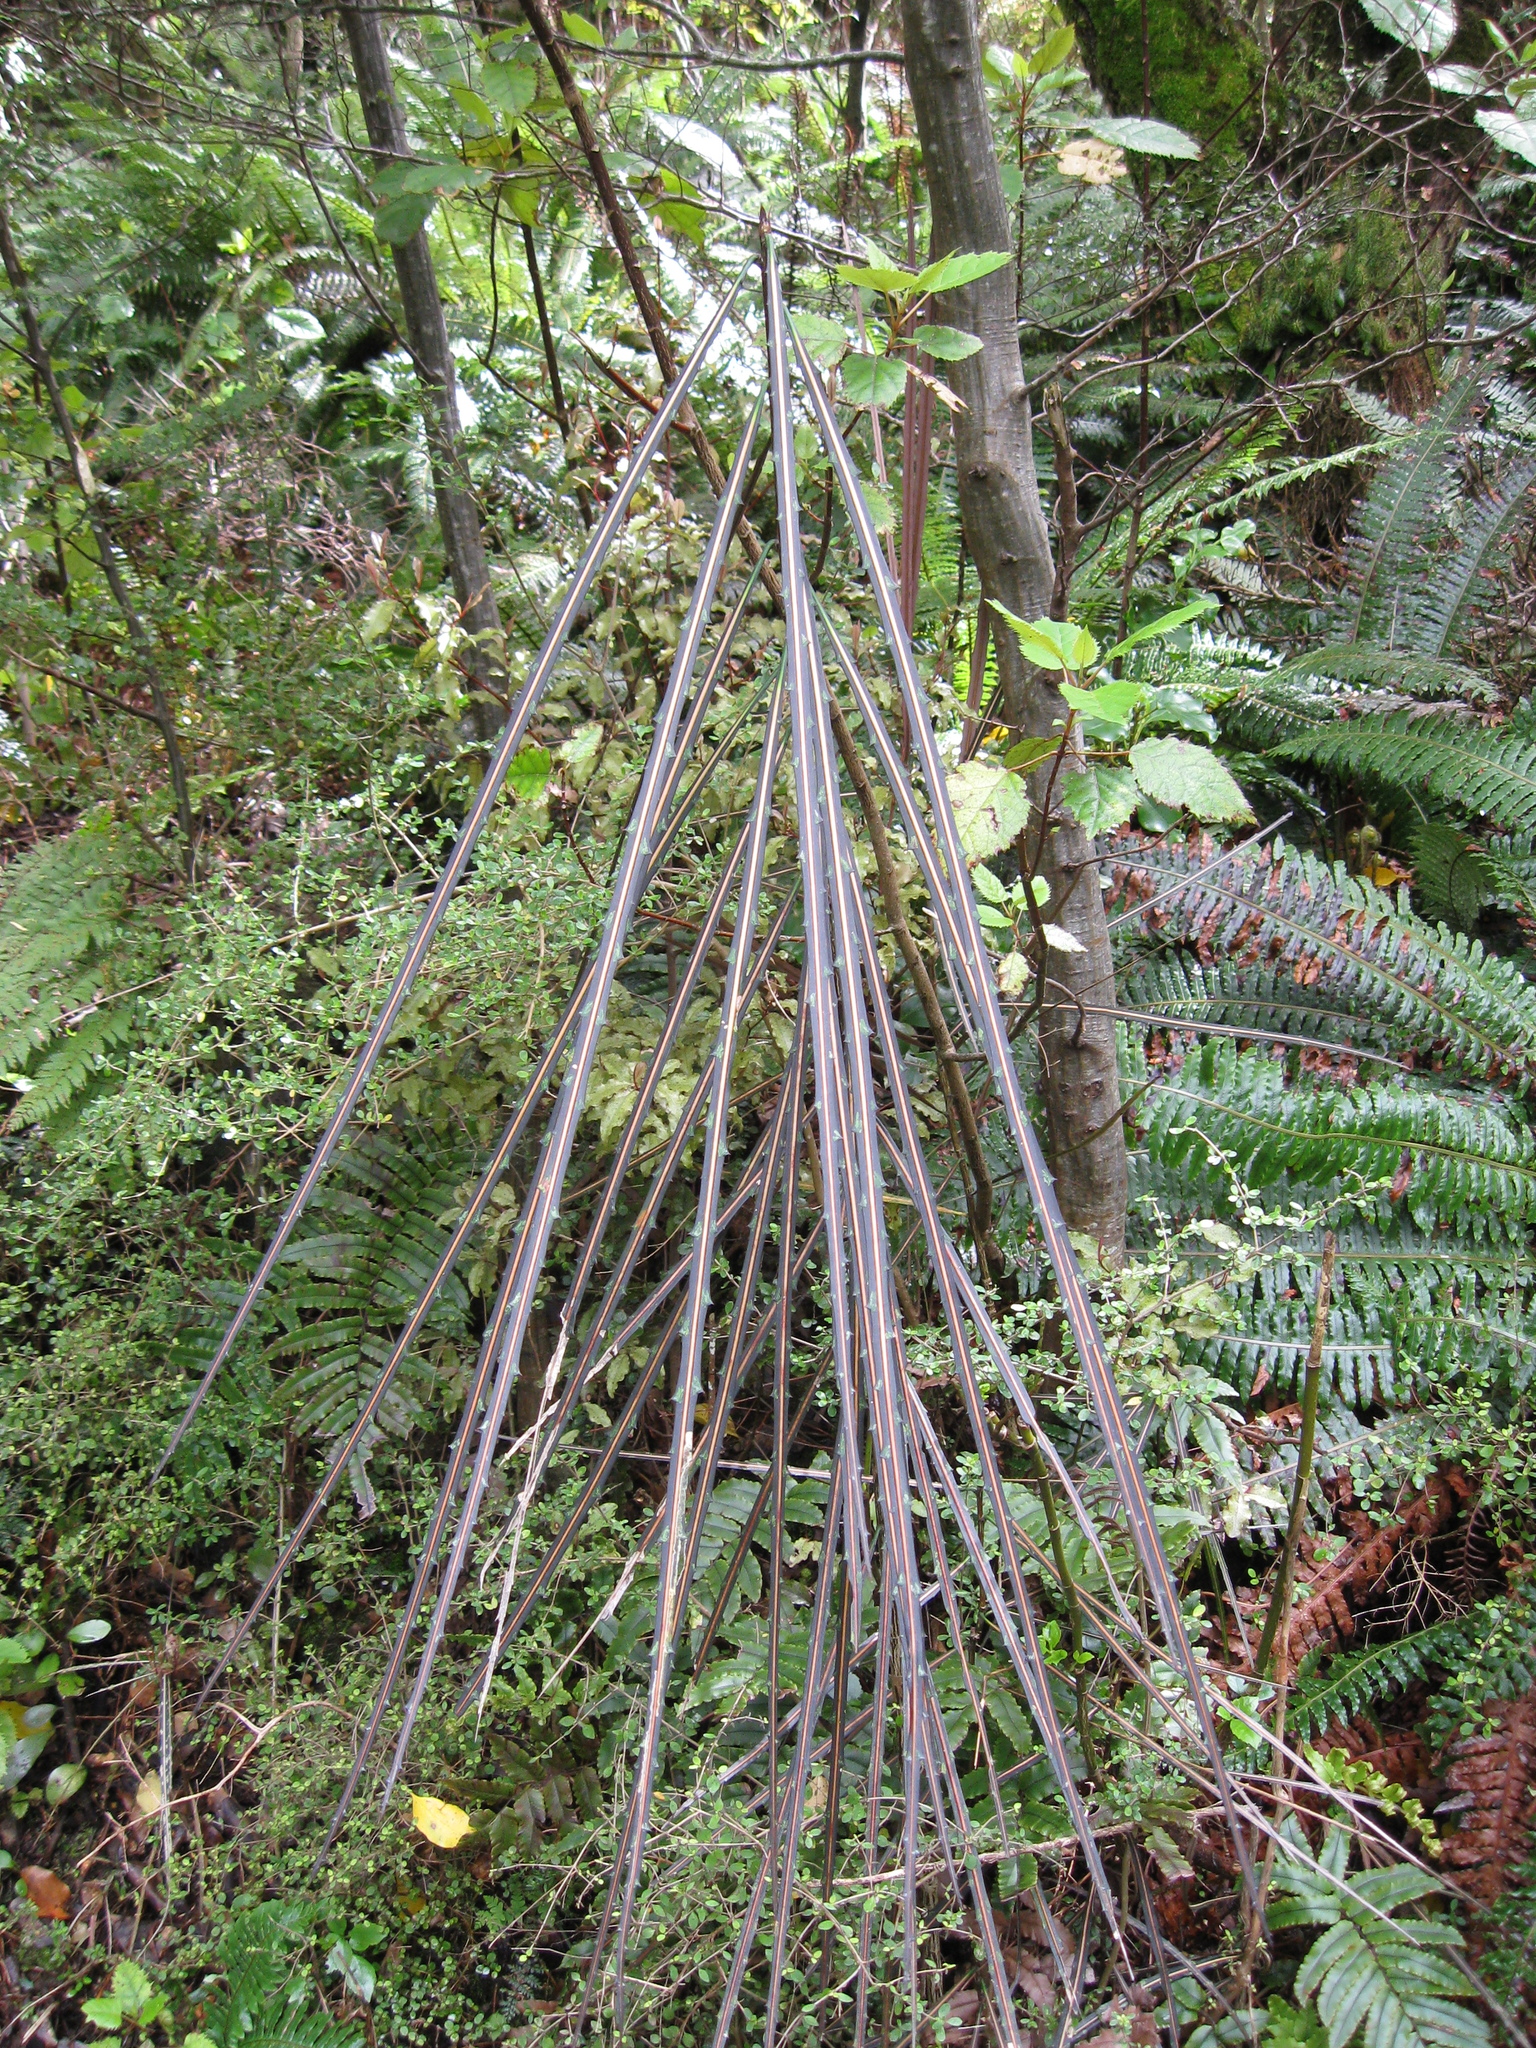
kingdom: Plantae
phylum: Tracheophyta
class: Magnoliopsida
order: Apiales
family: Araliaceae
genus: Pseudopanax
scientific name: Pseudopanax crassifolius
